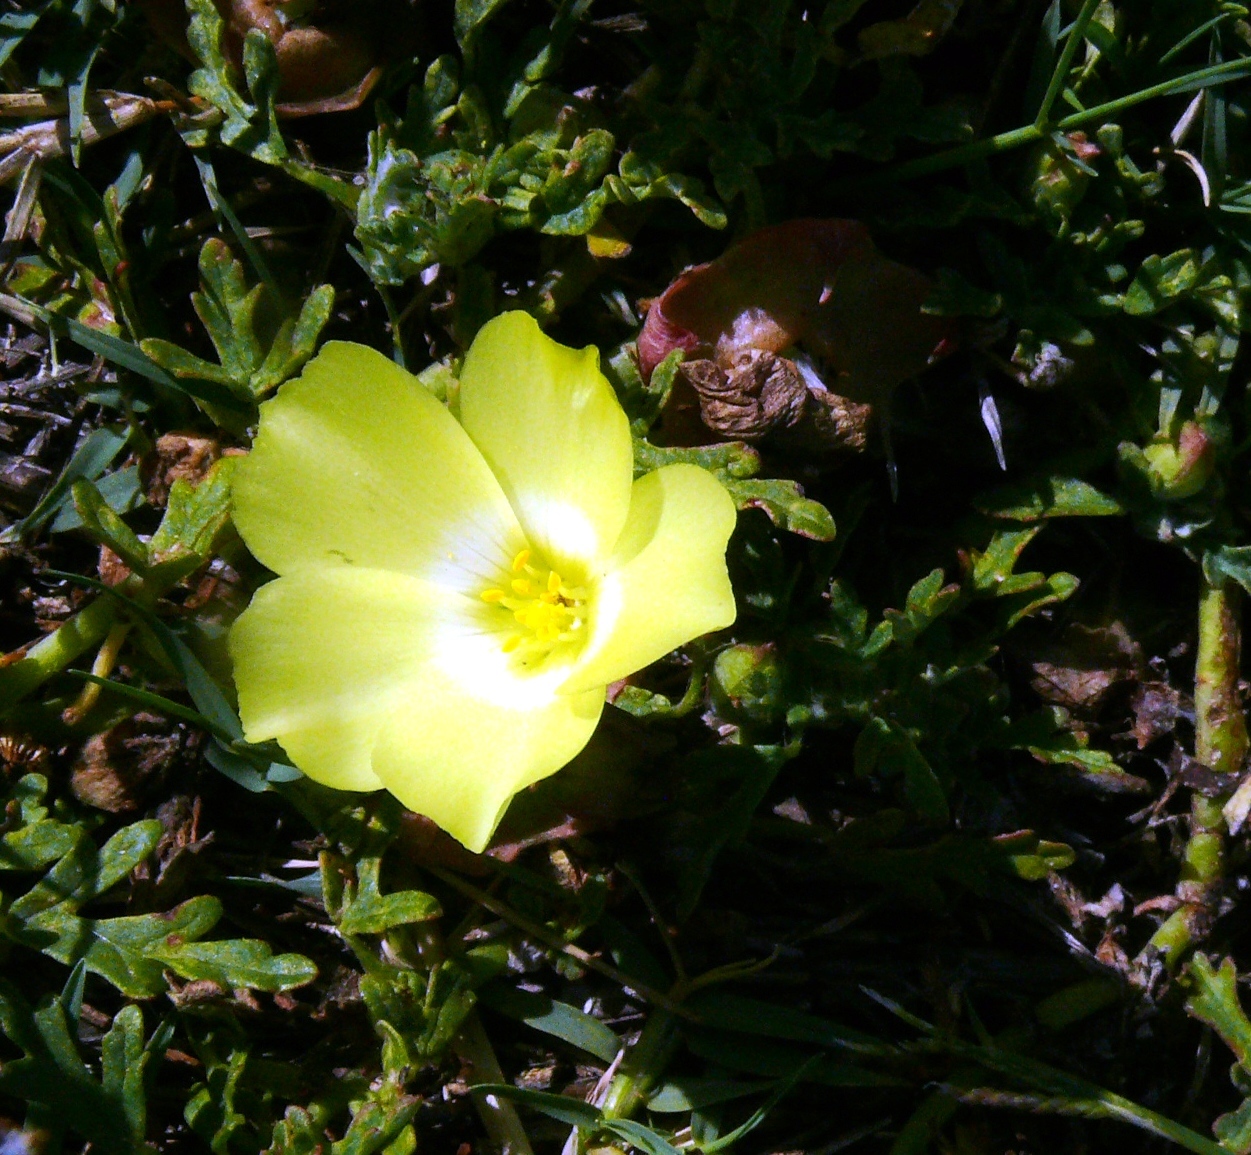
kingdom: Plantae
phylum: Tracheophyta
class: Magnoliopsida
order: Malvales
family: Neuradaceae
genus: Grielum
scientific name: Grielum humifusum
